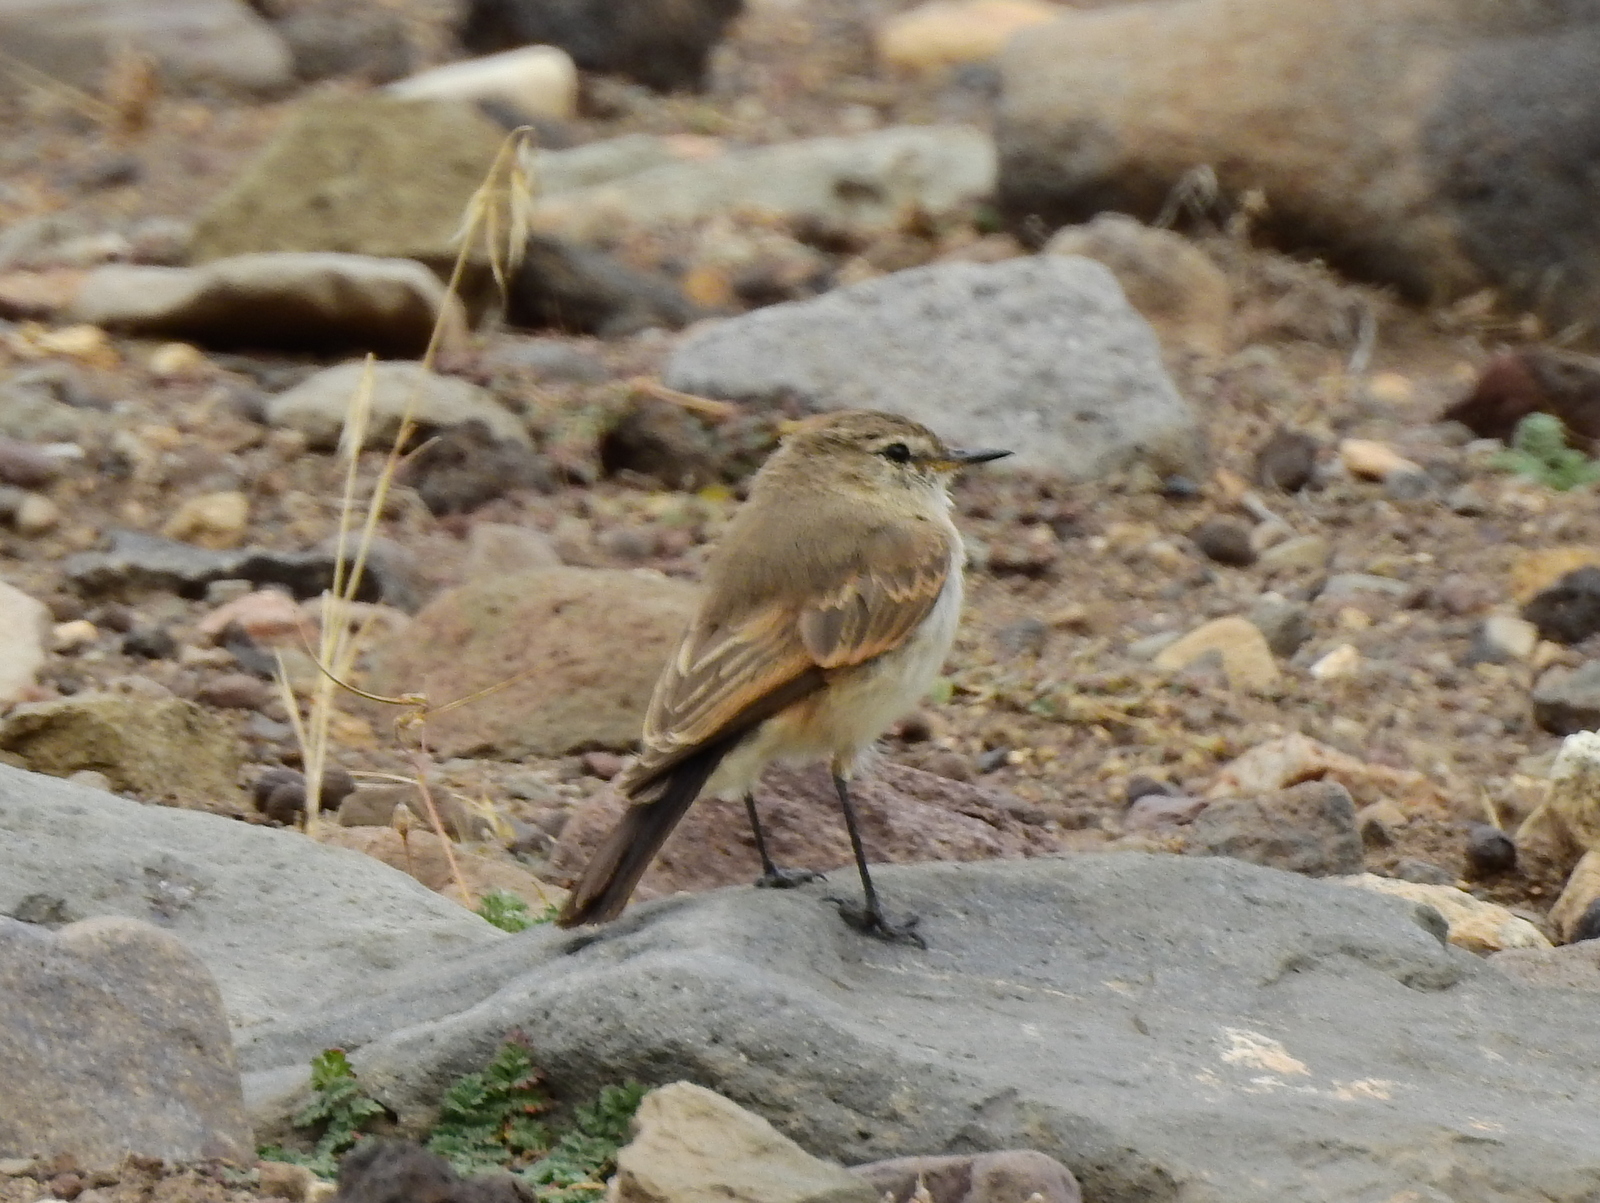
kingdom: Animalia
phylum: Chordata
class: Aves
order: Passeriformes
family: Tyrannidae
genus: Muscisaxicola
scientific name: Muscisaxicola maculirostris
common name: Spot-billed ground tyrant
